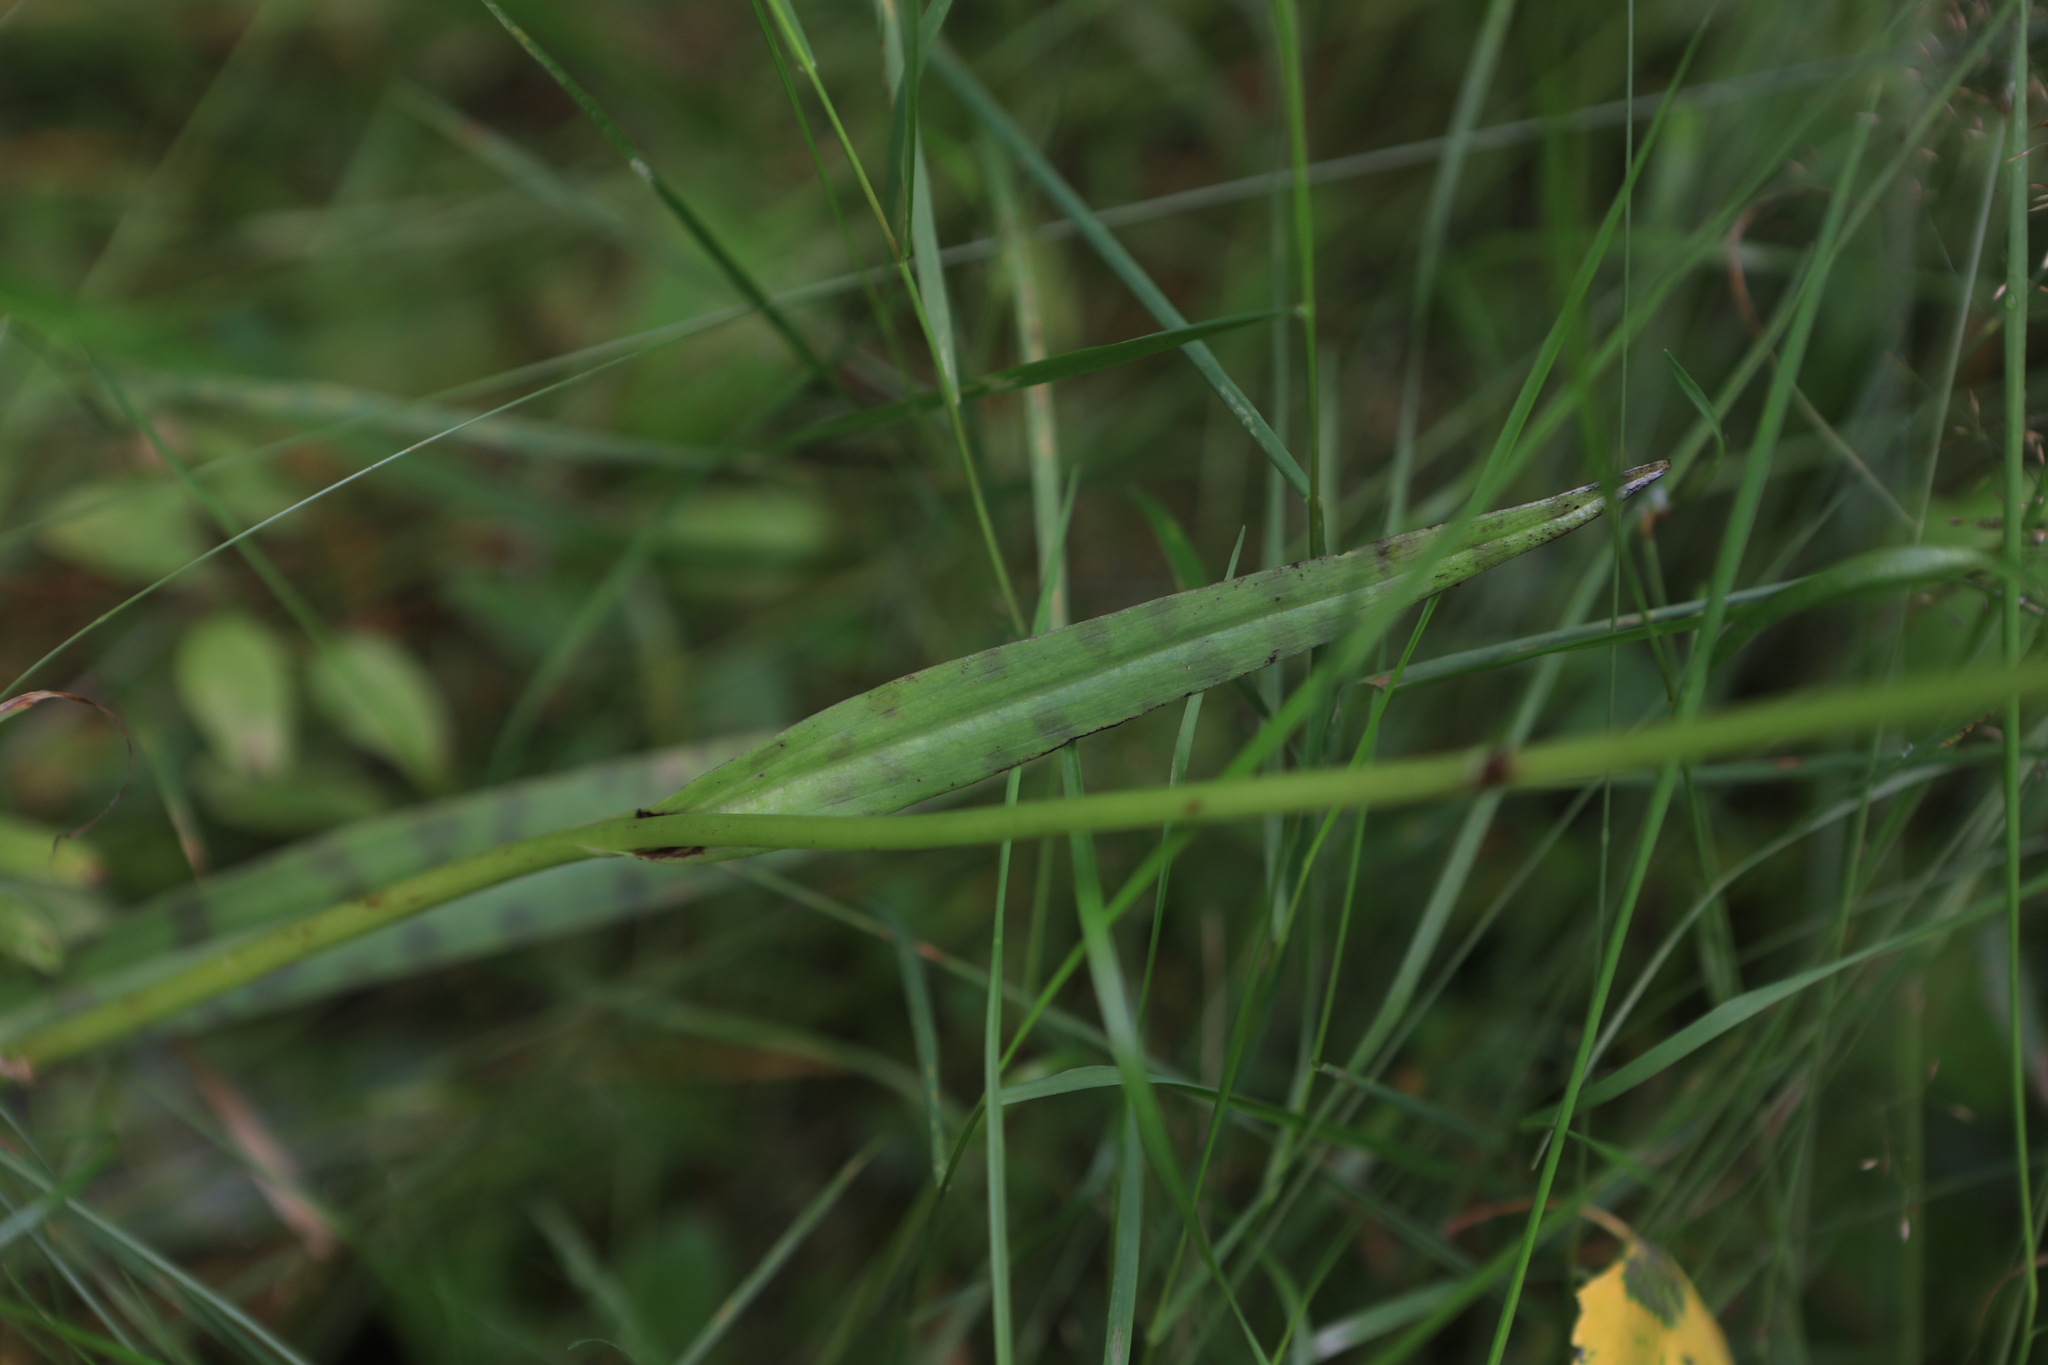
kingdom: Plantae
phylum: Tracheophyta
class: Liliopsida
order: Asparagales
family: Orchidaceae
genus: Dactylorhiza
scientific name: Dactylorhiza maculata
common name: Heath spotted-orchid
